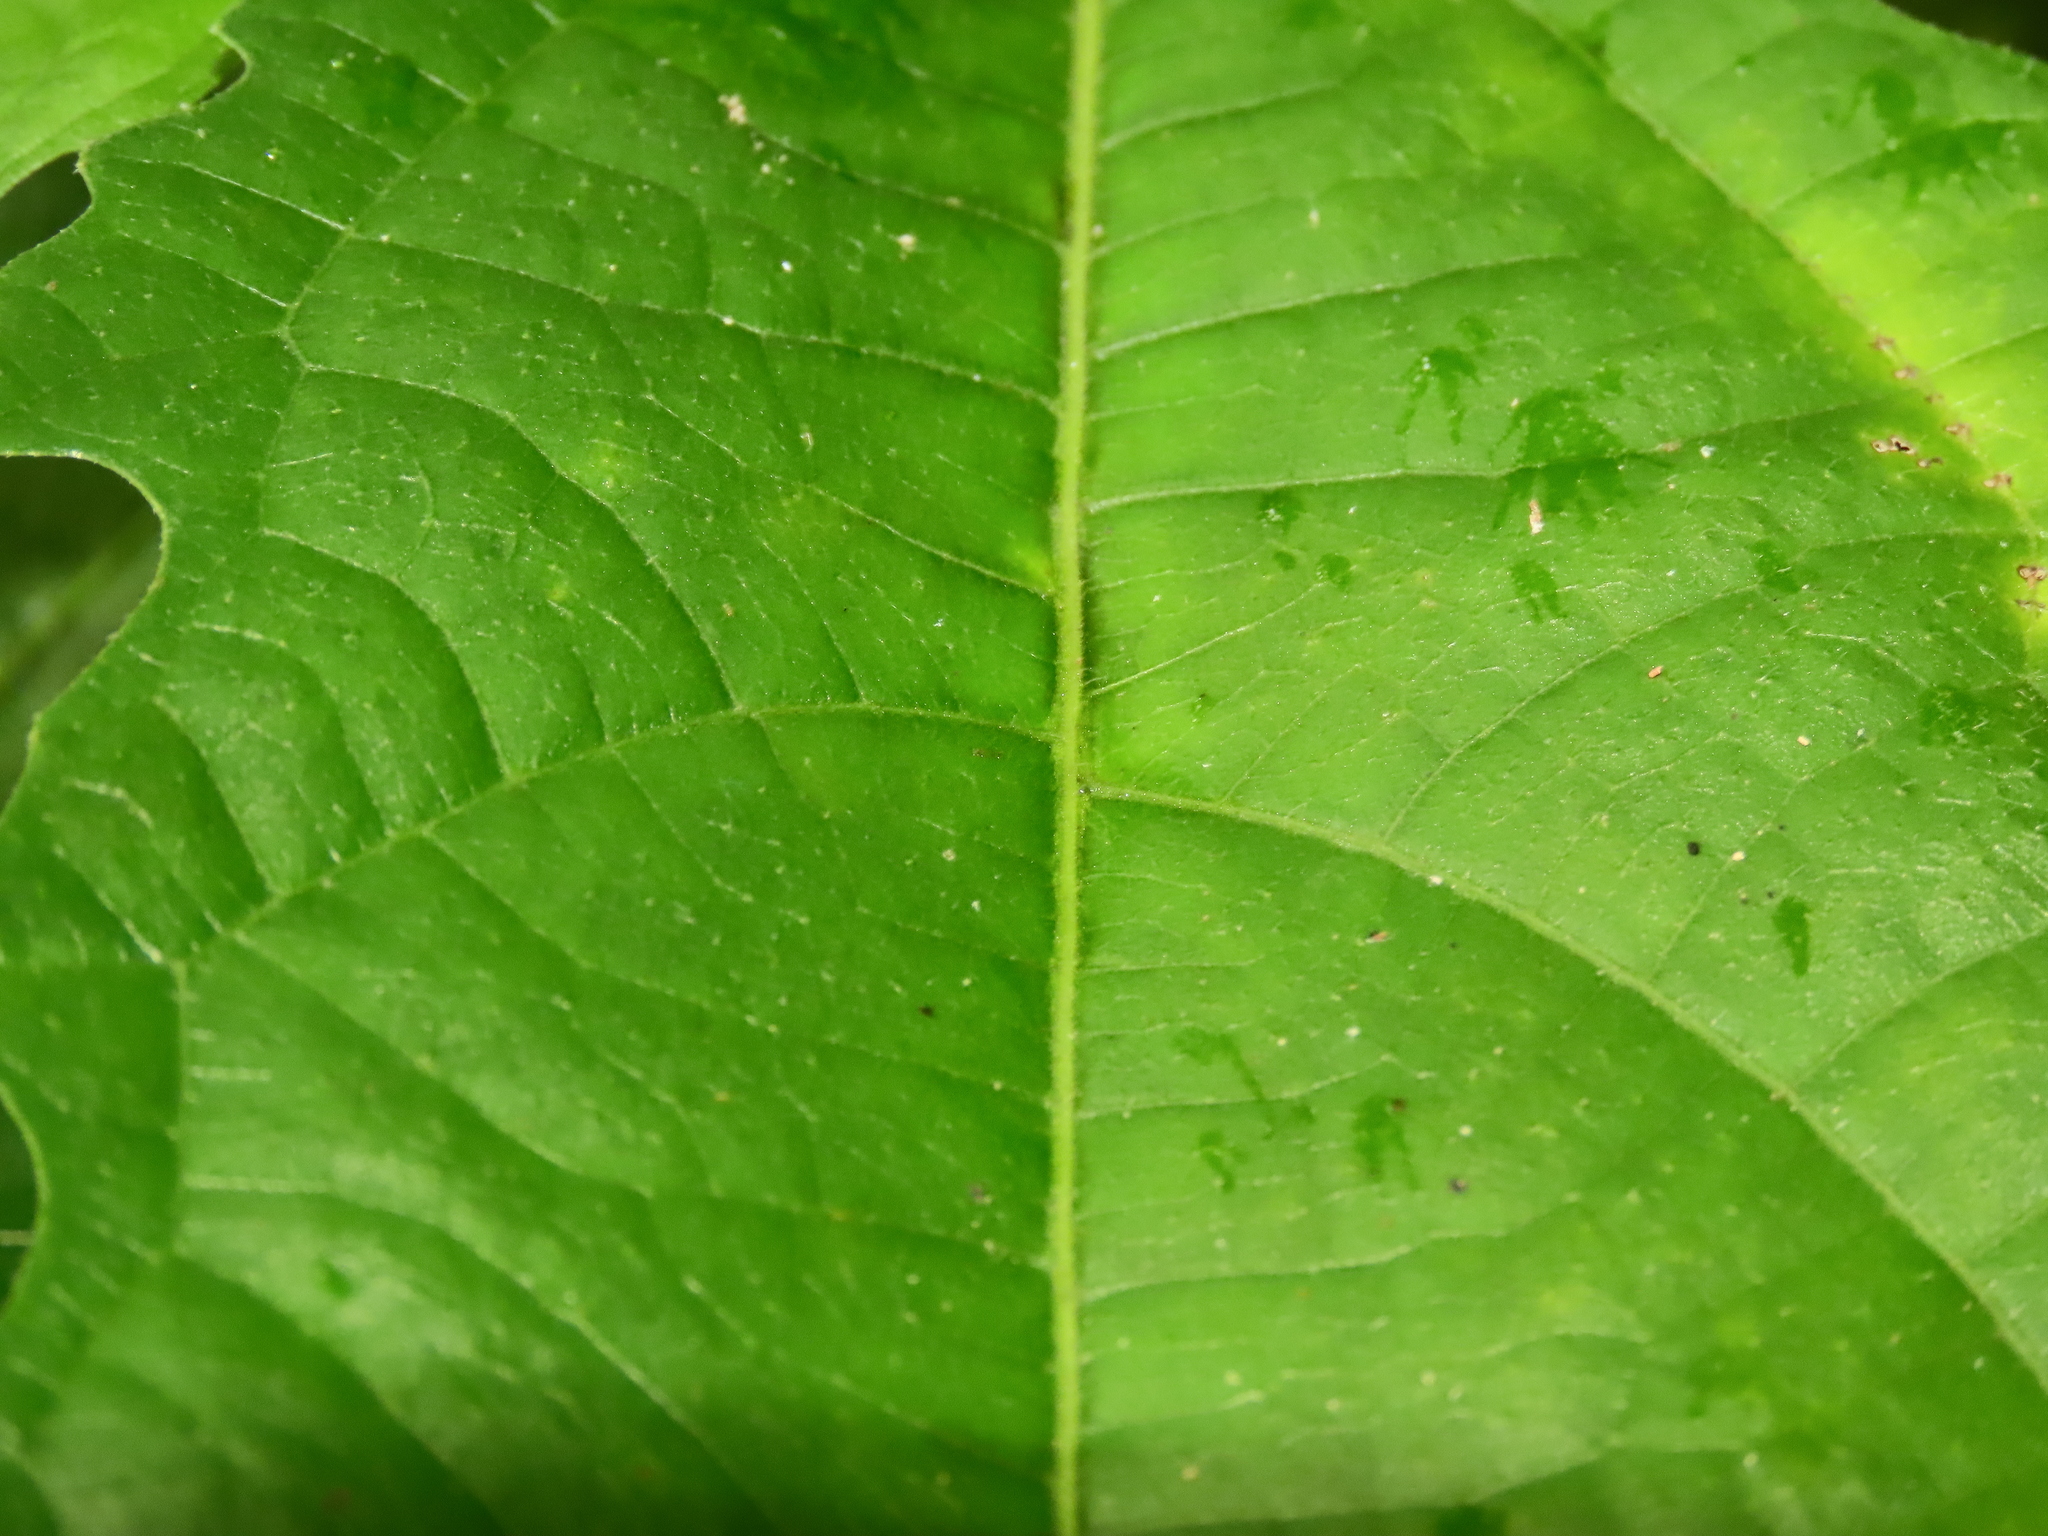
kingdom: Plantae
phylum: Tracheophyta
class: Magnoliopsida
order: Rosales
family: Moraceae
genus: Ficus
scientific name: Ficus ampelos
